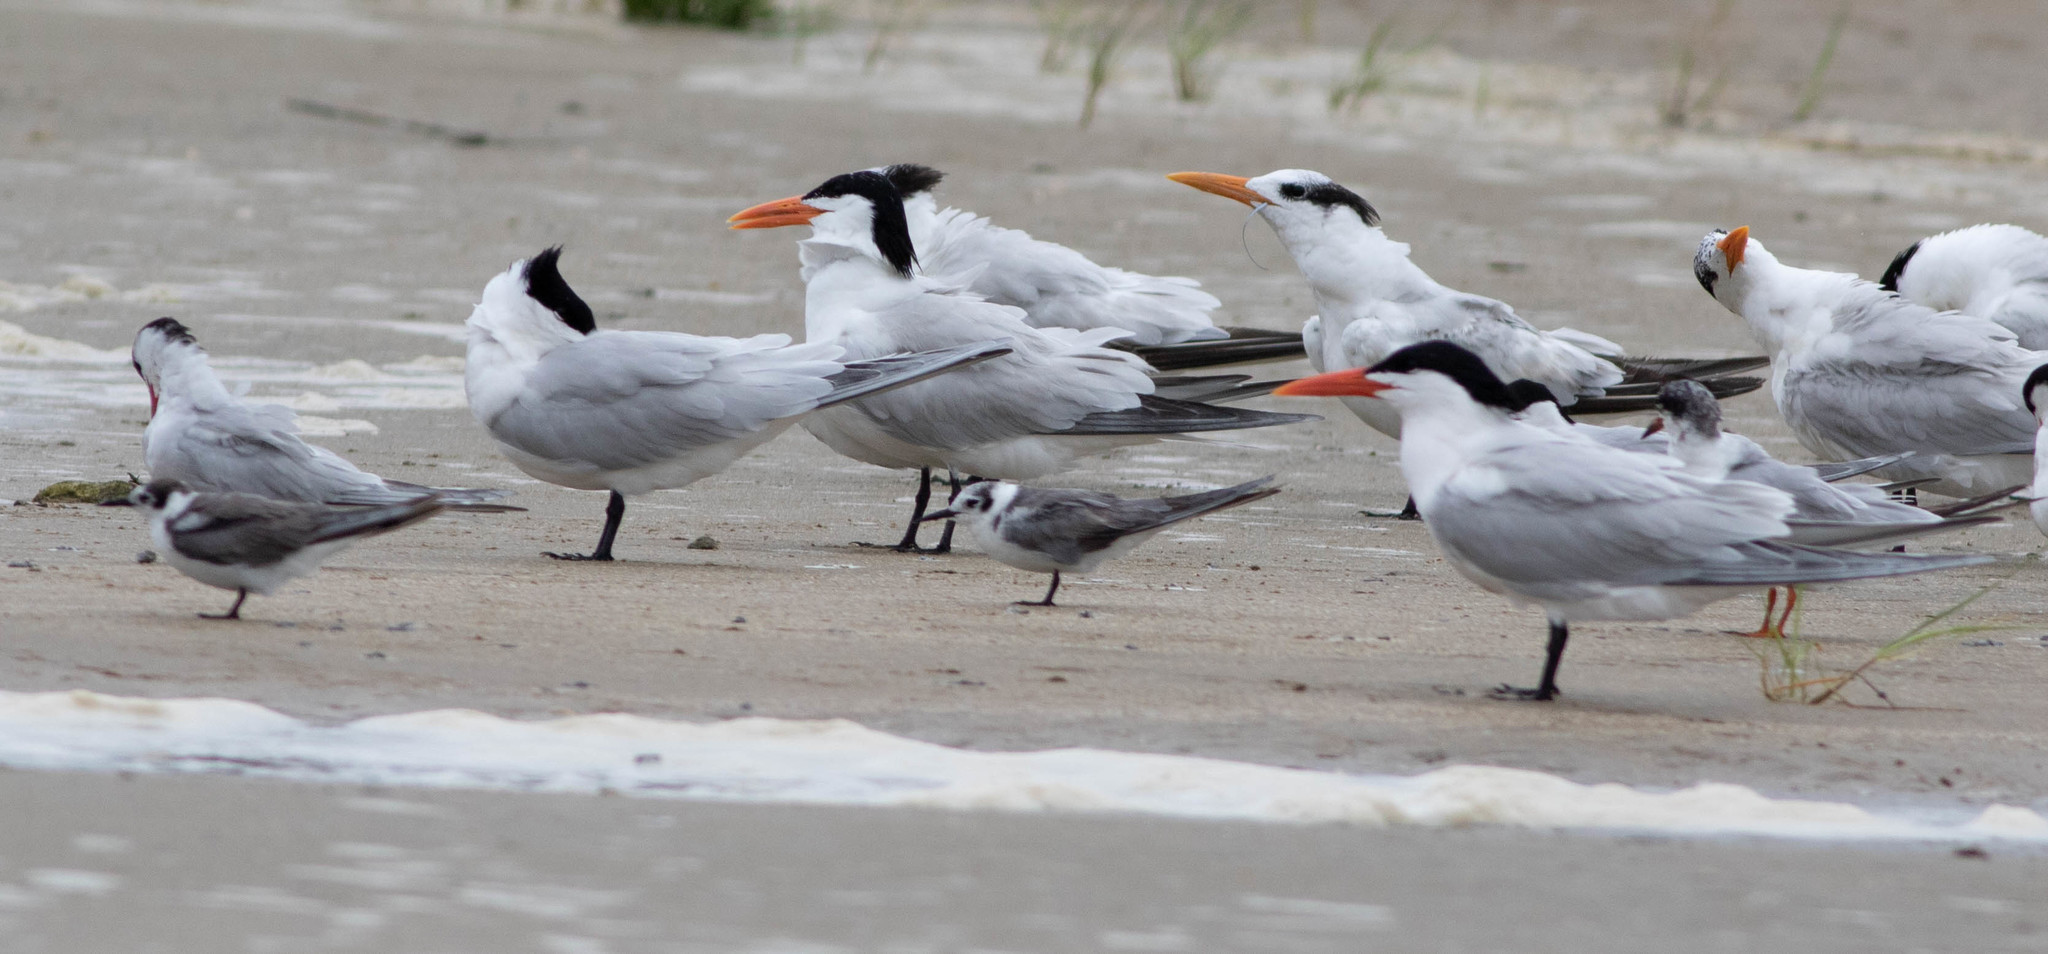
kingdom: Animalia
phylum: Chordata
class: Aves
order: Charadriiformes
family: Laridae
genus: Thalasseus
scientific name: Thalasseus maximus
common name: Royal tern
